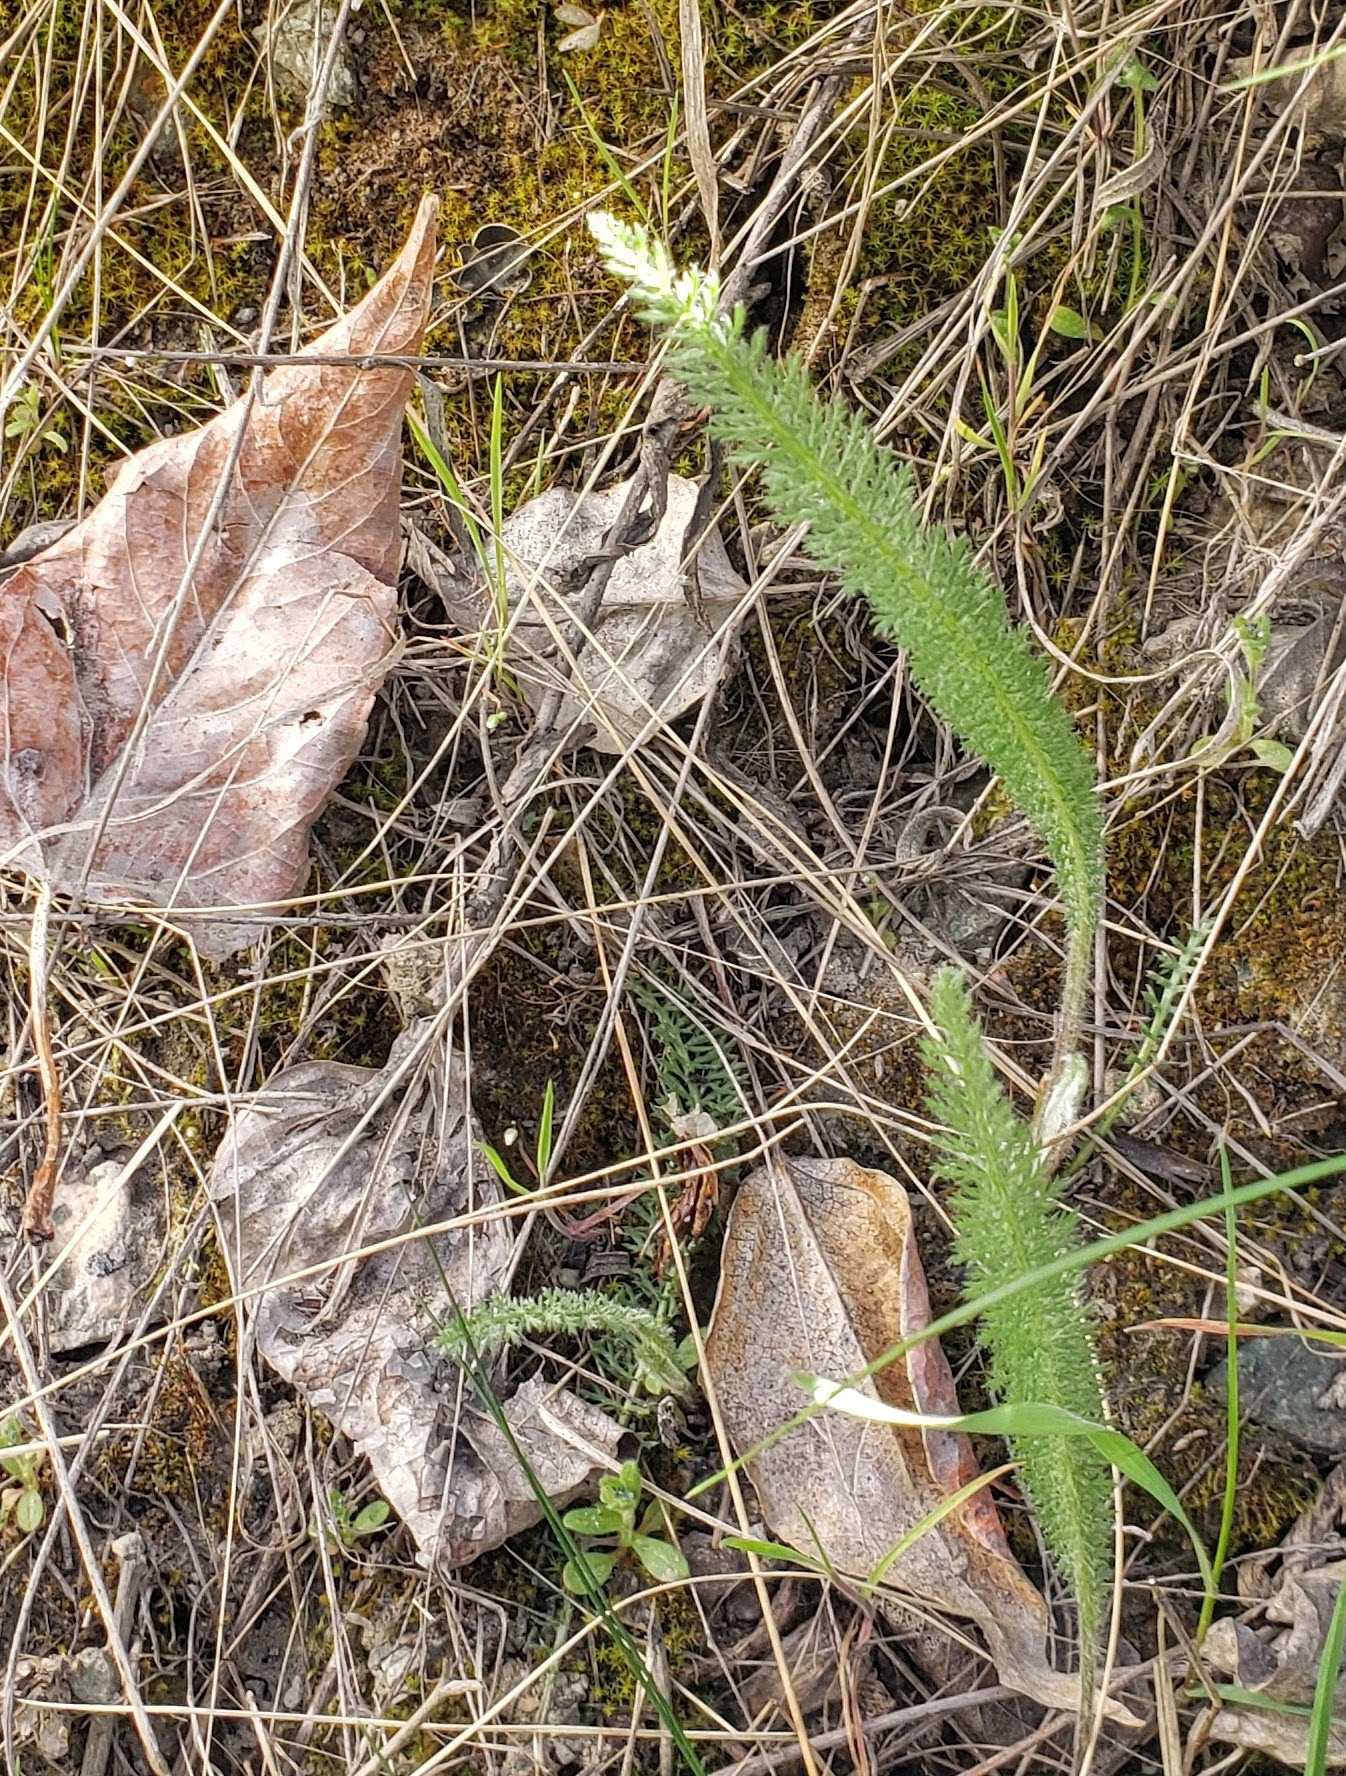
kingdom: Plantae
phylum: Tracheophyta
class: Magnoliopsida
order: Asterales
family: Asteraceae
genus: Achillea
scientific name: Achillea millefolium
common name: Yarrow
